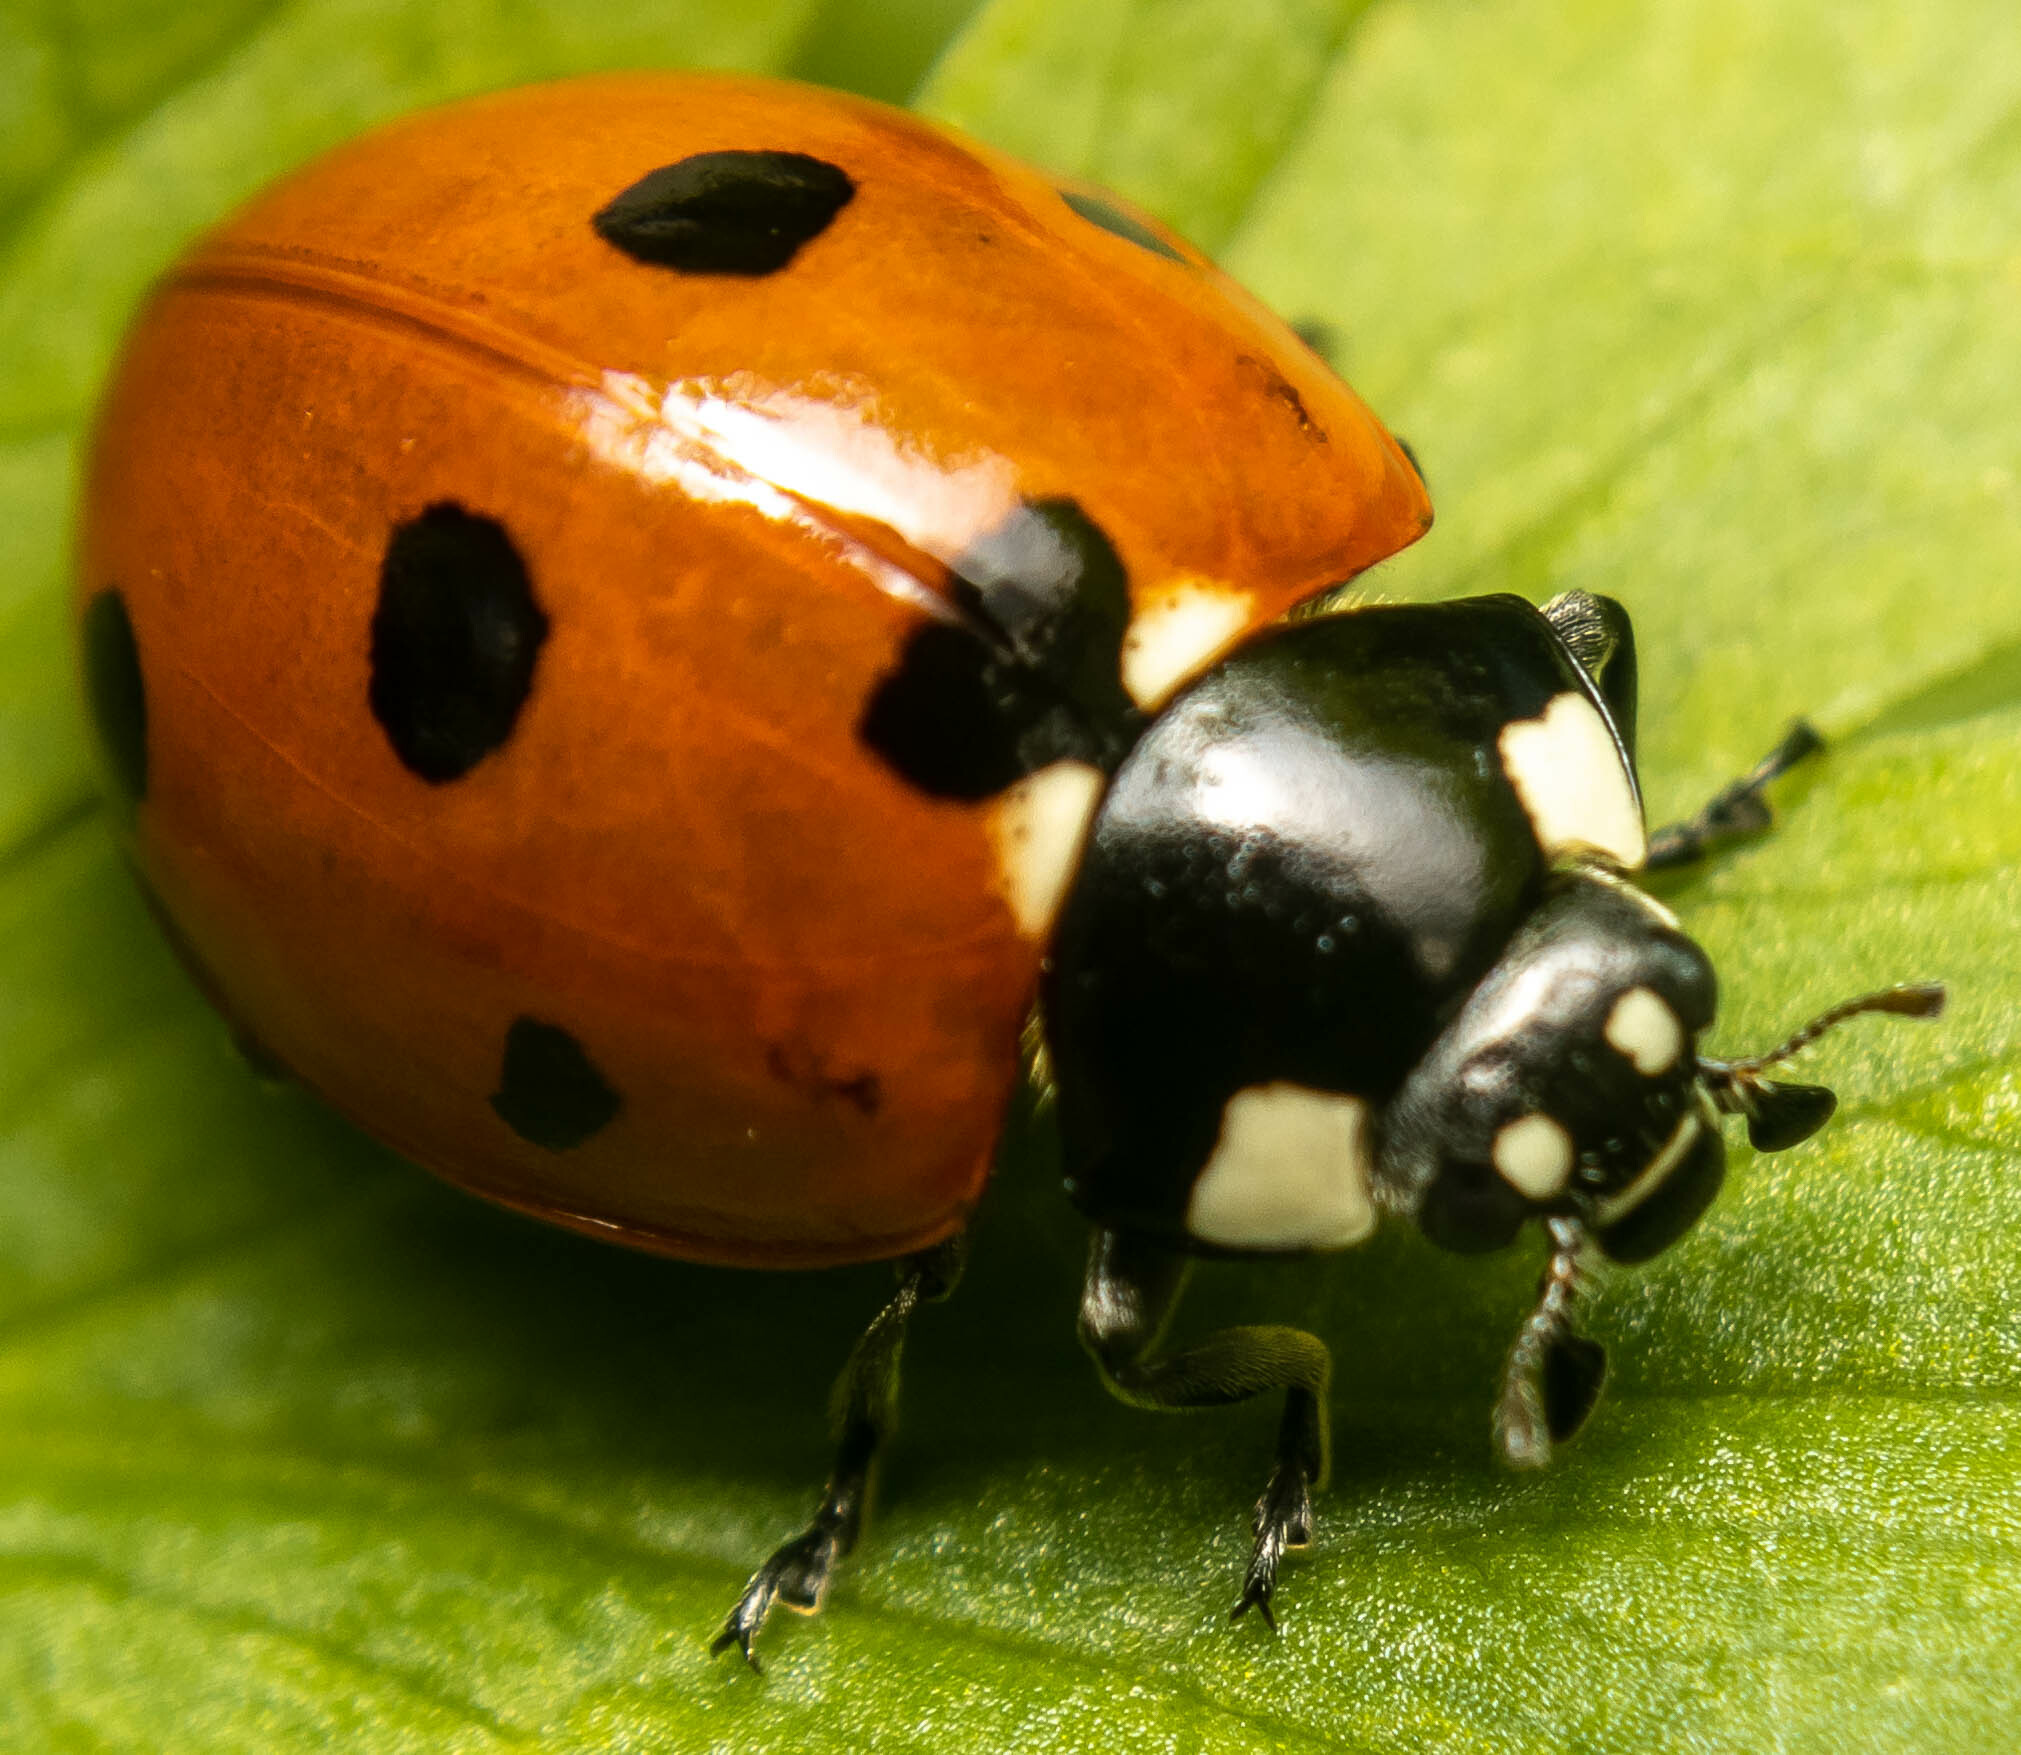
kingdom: Animalia
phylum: Arthropoda
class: Insecta
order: Coleoptera
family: Coccinellidae
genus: Coccinella
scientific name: Coccinella septempunctata
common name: Sevenspotted lady beetle
